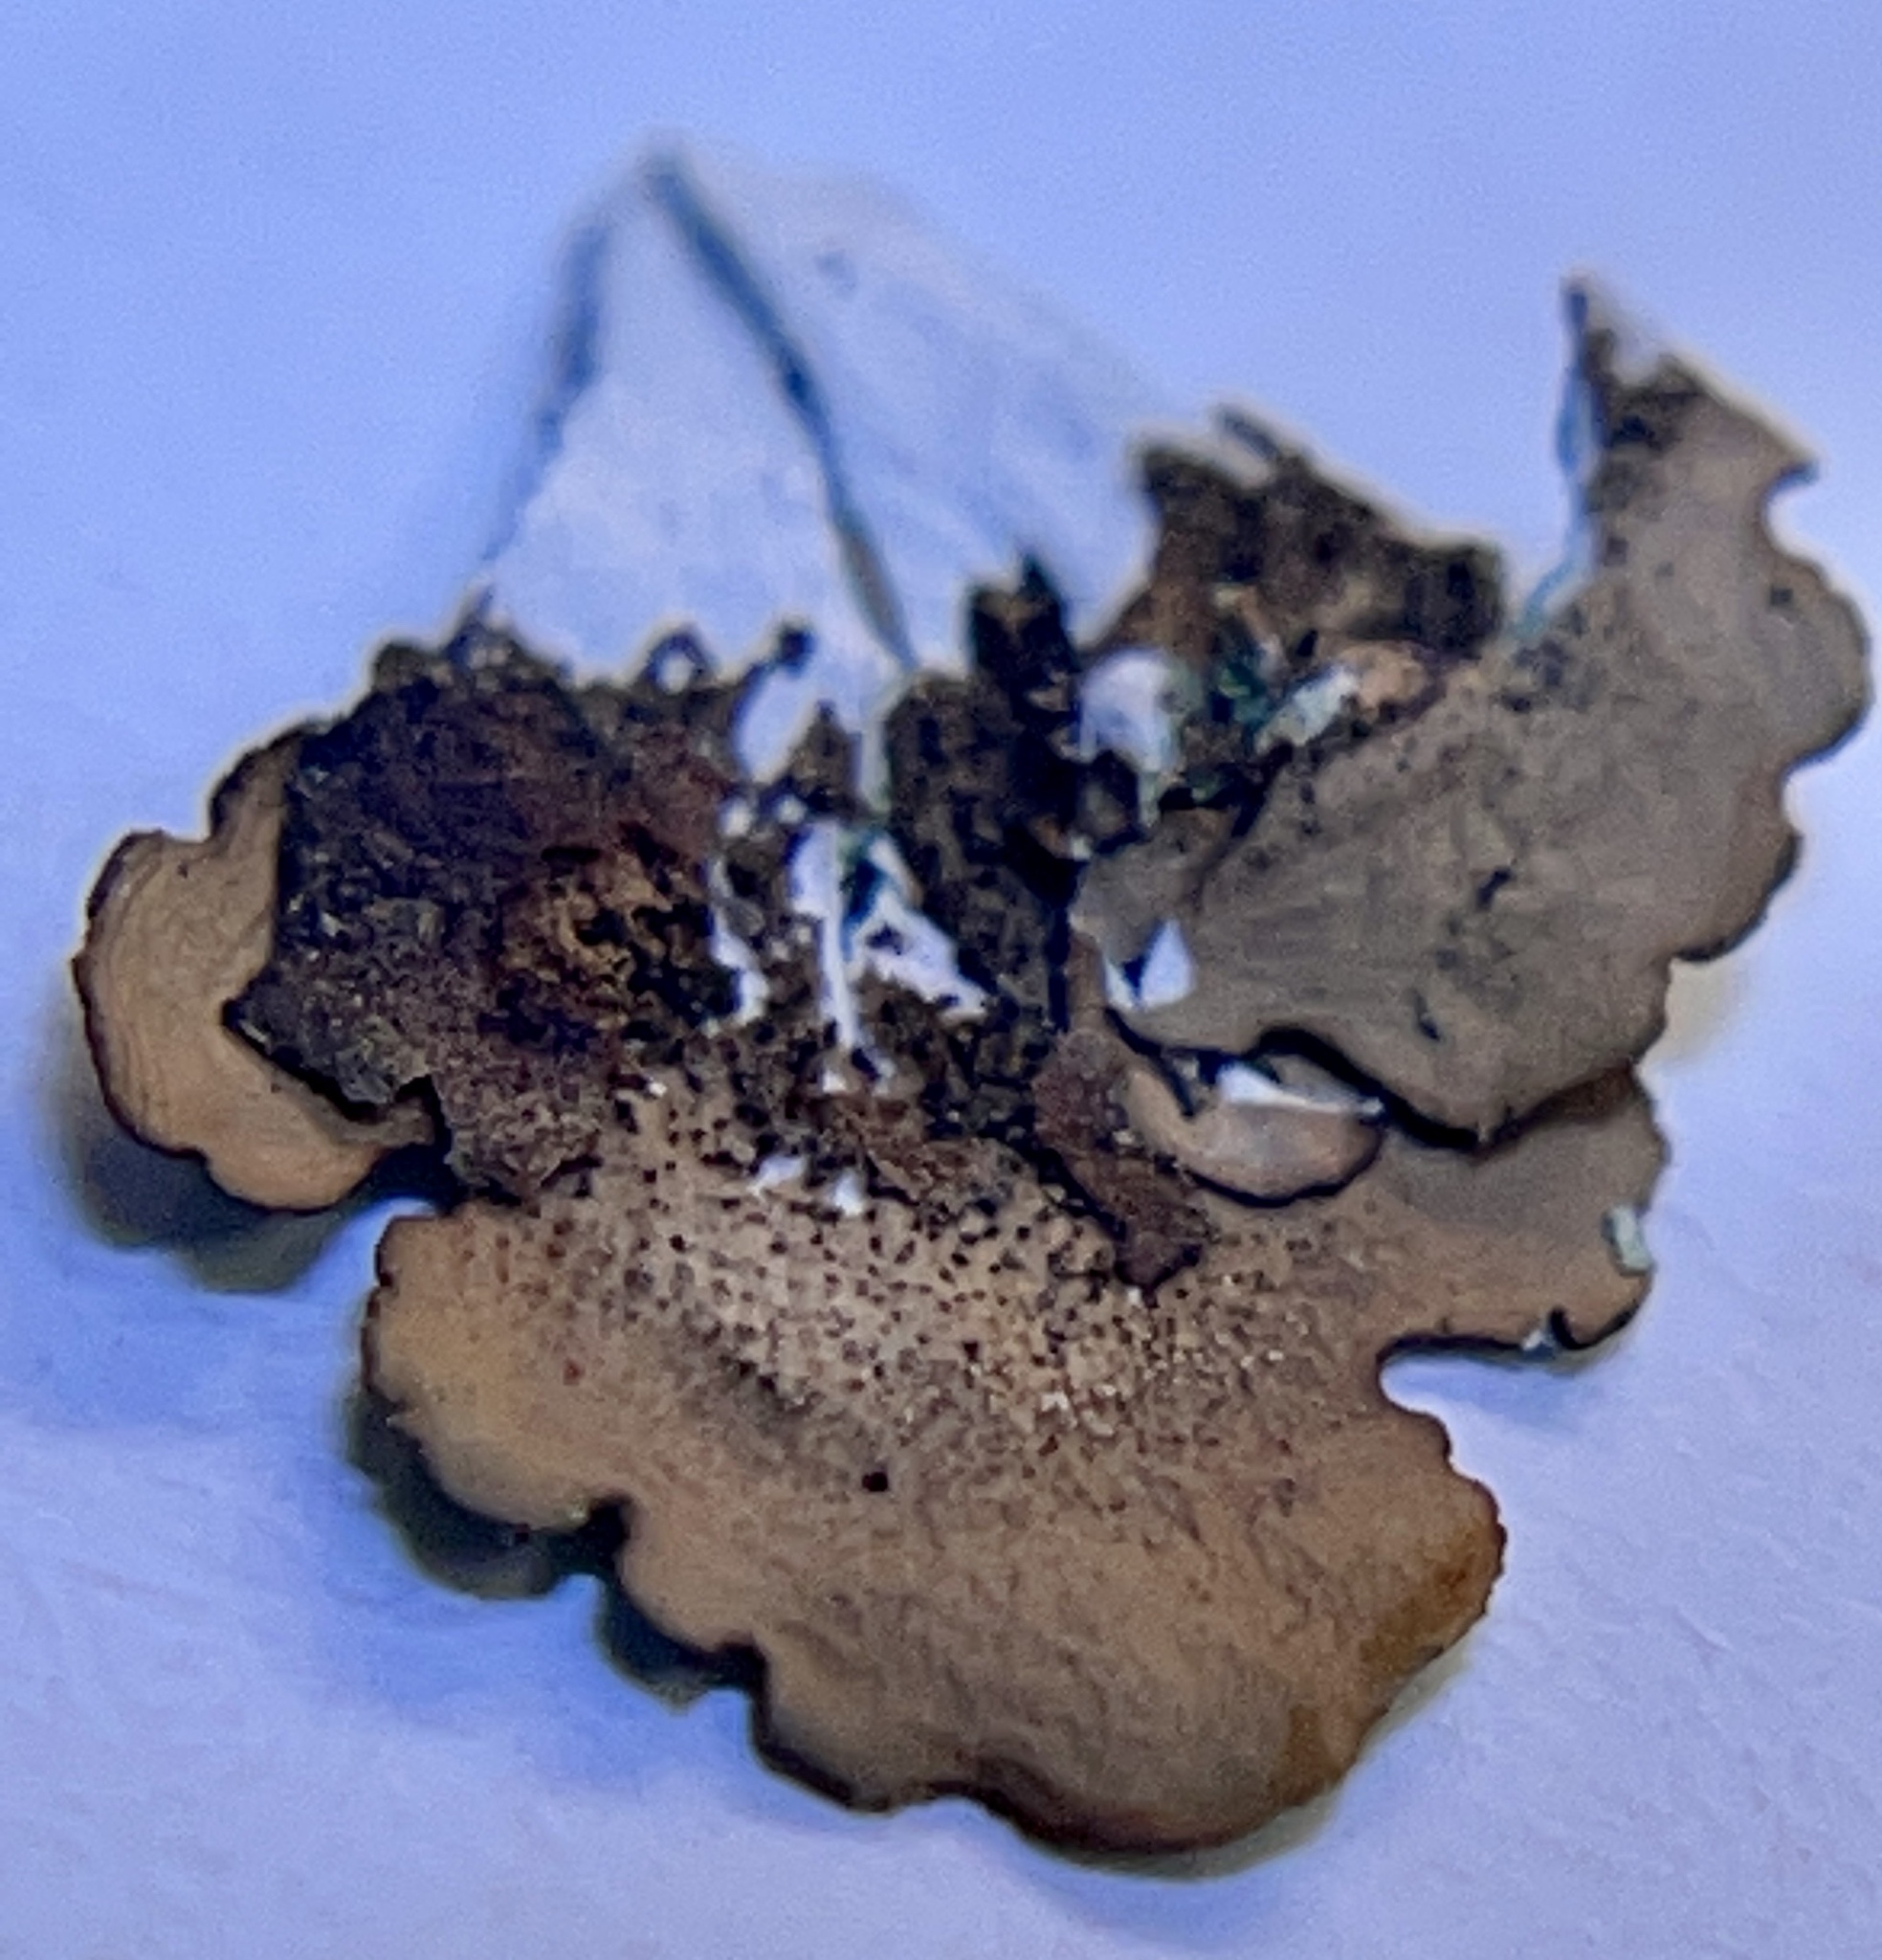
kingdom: Fungi
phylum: Ascomycota
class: Lecanoromycetes
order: Lecanorales
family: Parmeliaceae
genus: Canoparmelia
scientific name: Canoparmelia texana
